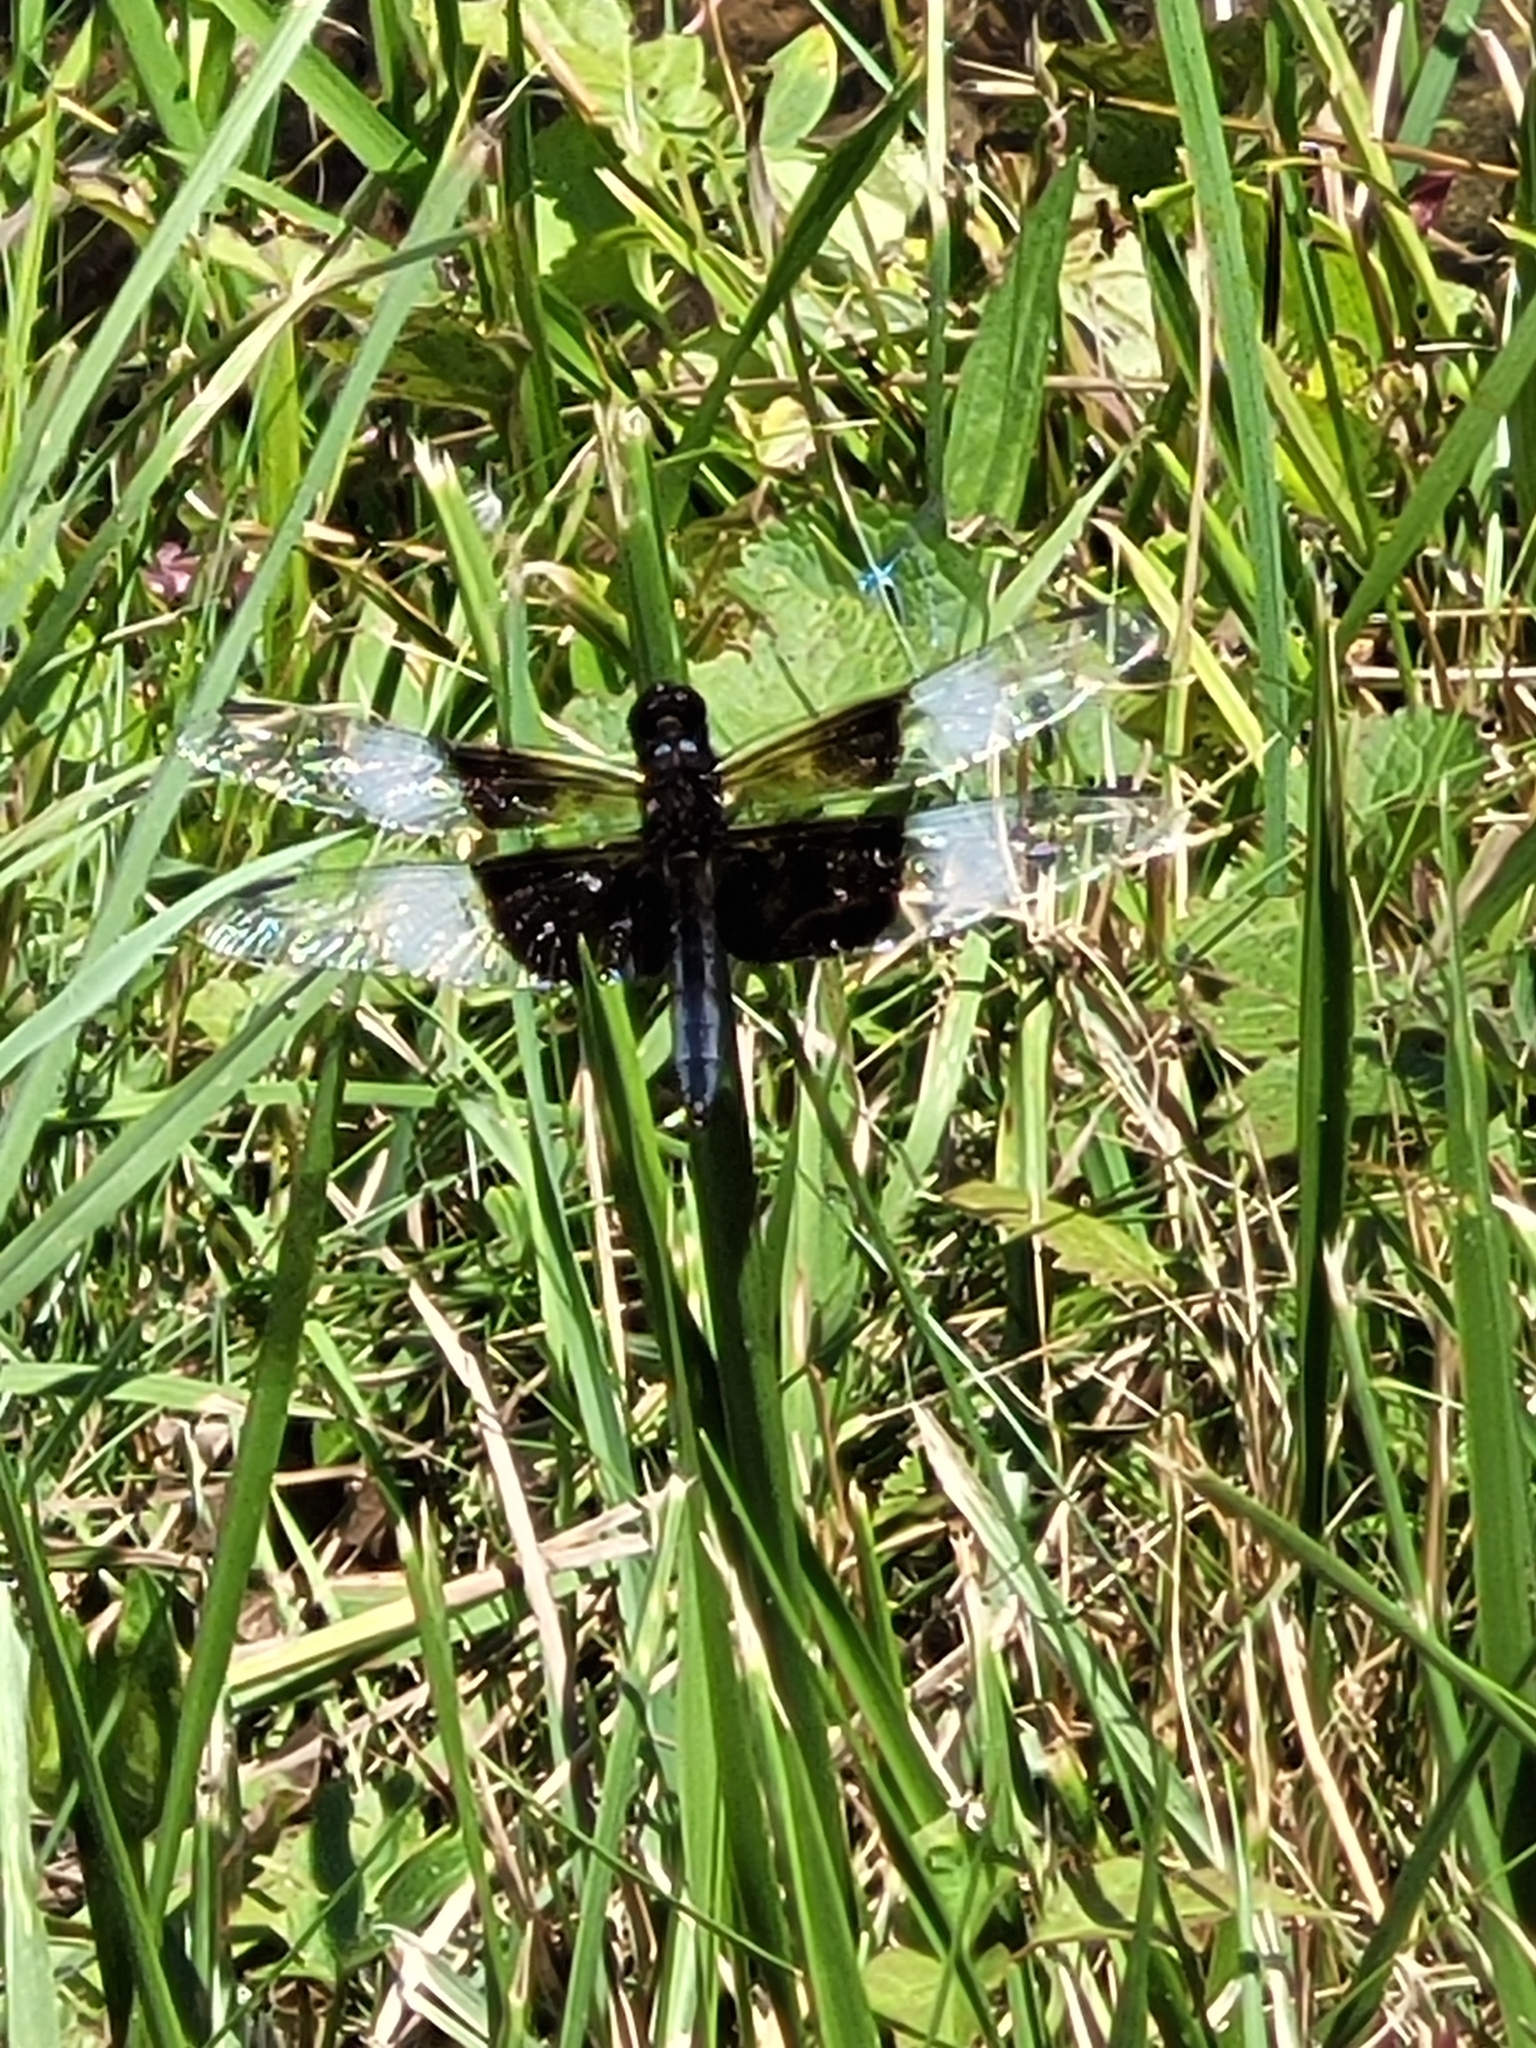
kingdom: Animalia
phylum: Arthropoda
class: Insecta
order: Odonata
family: Libellulidae
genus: Libellula
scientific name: Libellula luctuosa
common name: Widow skimmer
